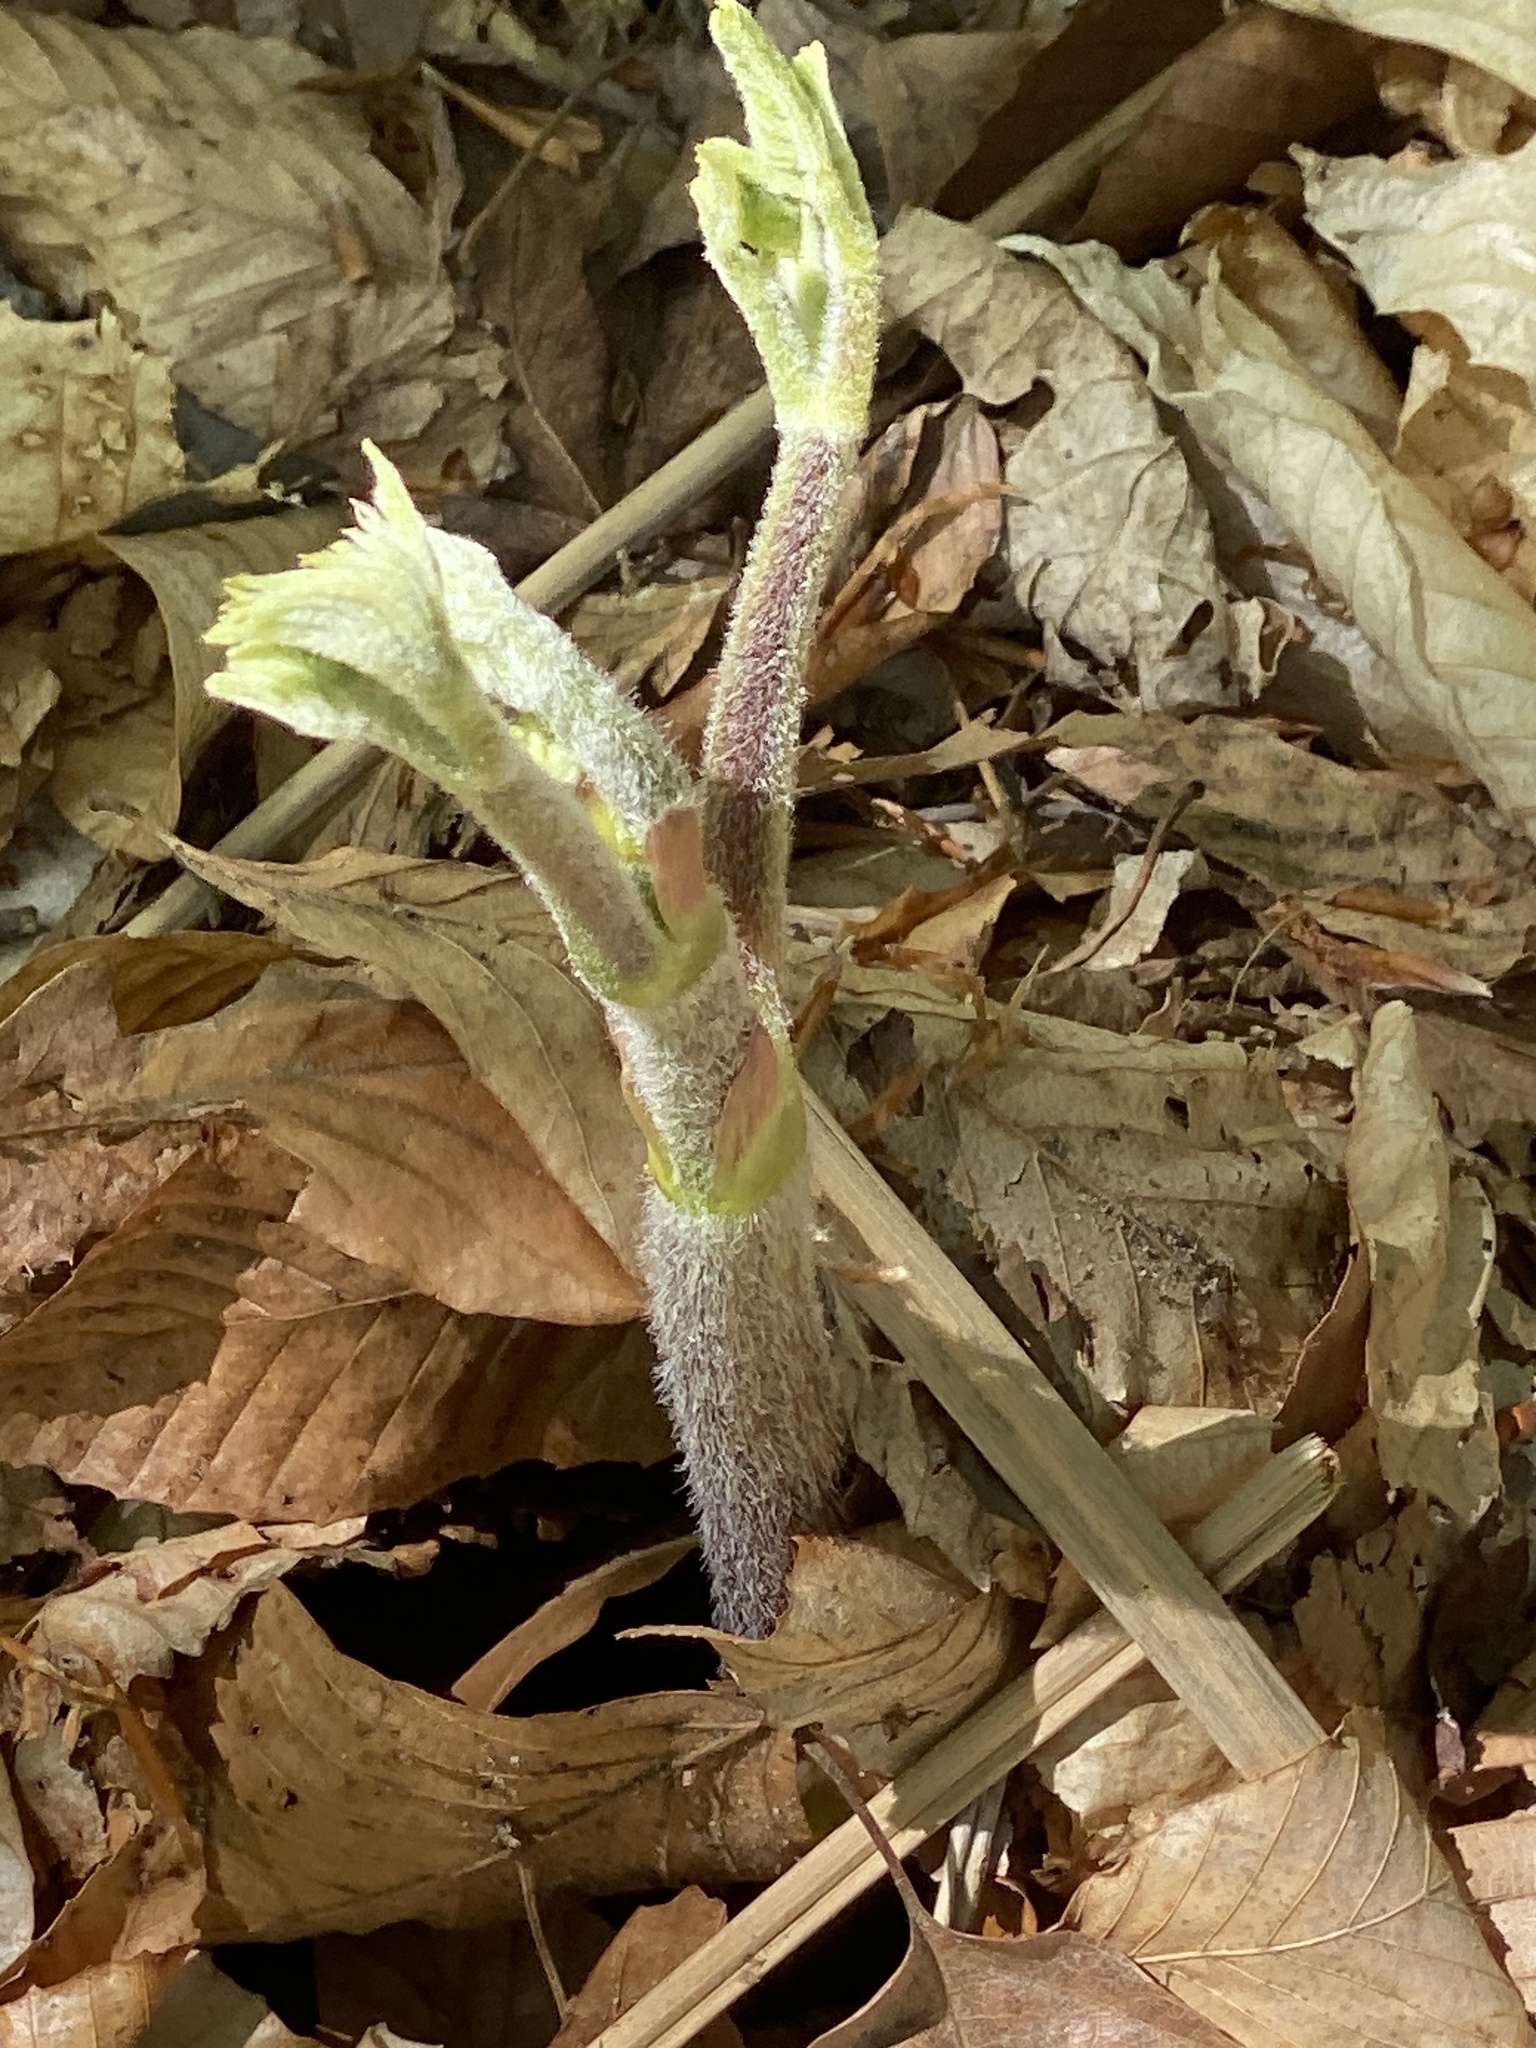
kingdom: Plantae
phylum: Tracheophyta
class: Magnoliopsida
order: Apiales
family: Araliaceae
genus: Aralia
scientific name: Aralia racemosa
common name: American-spikenard
